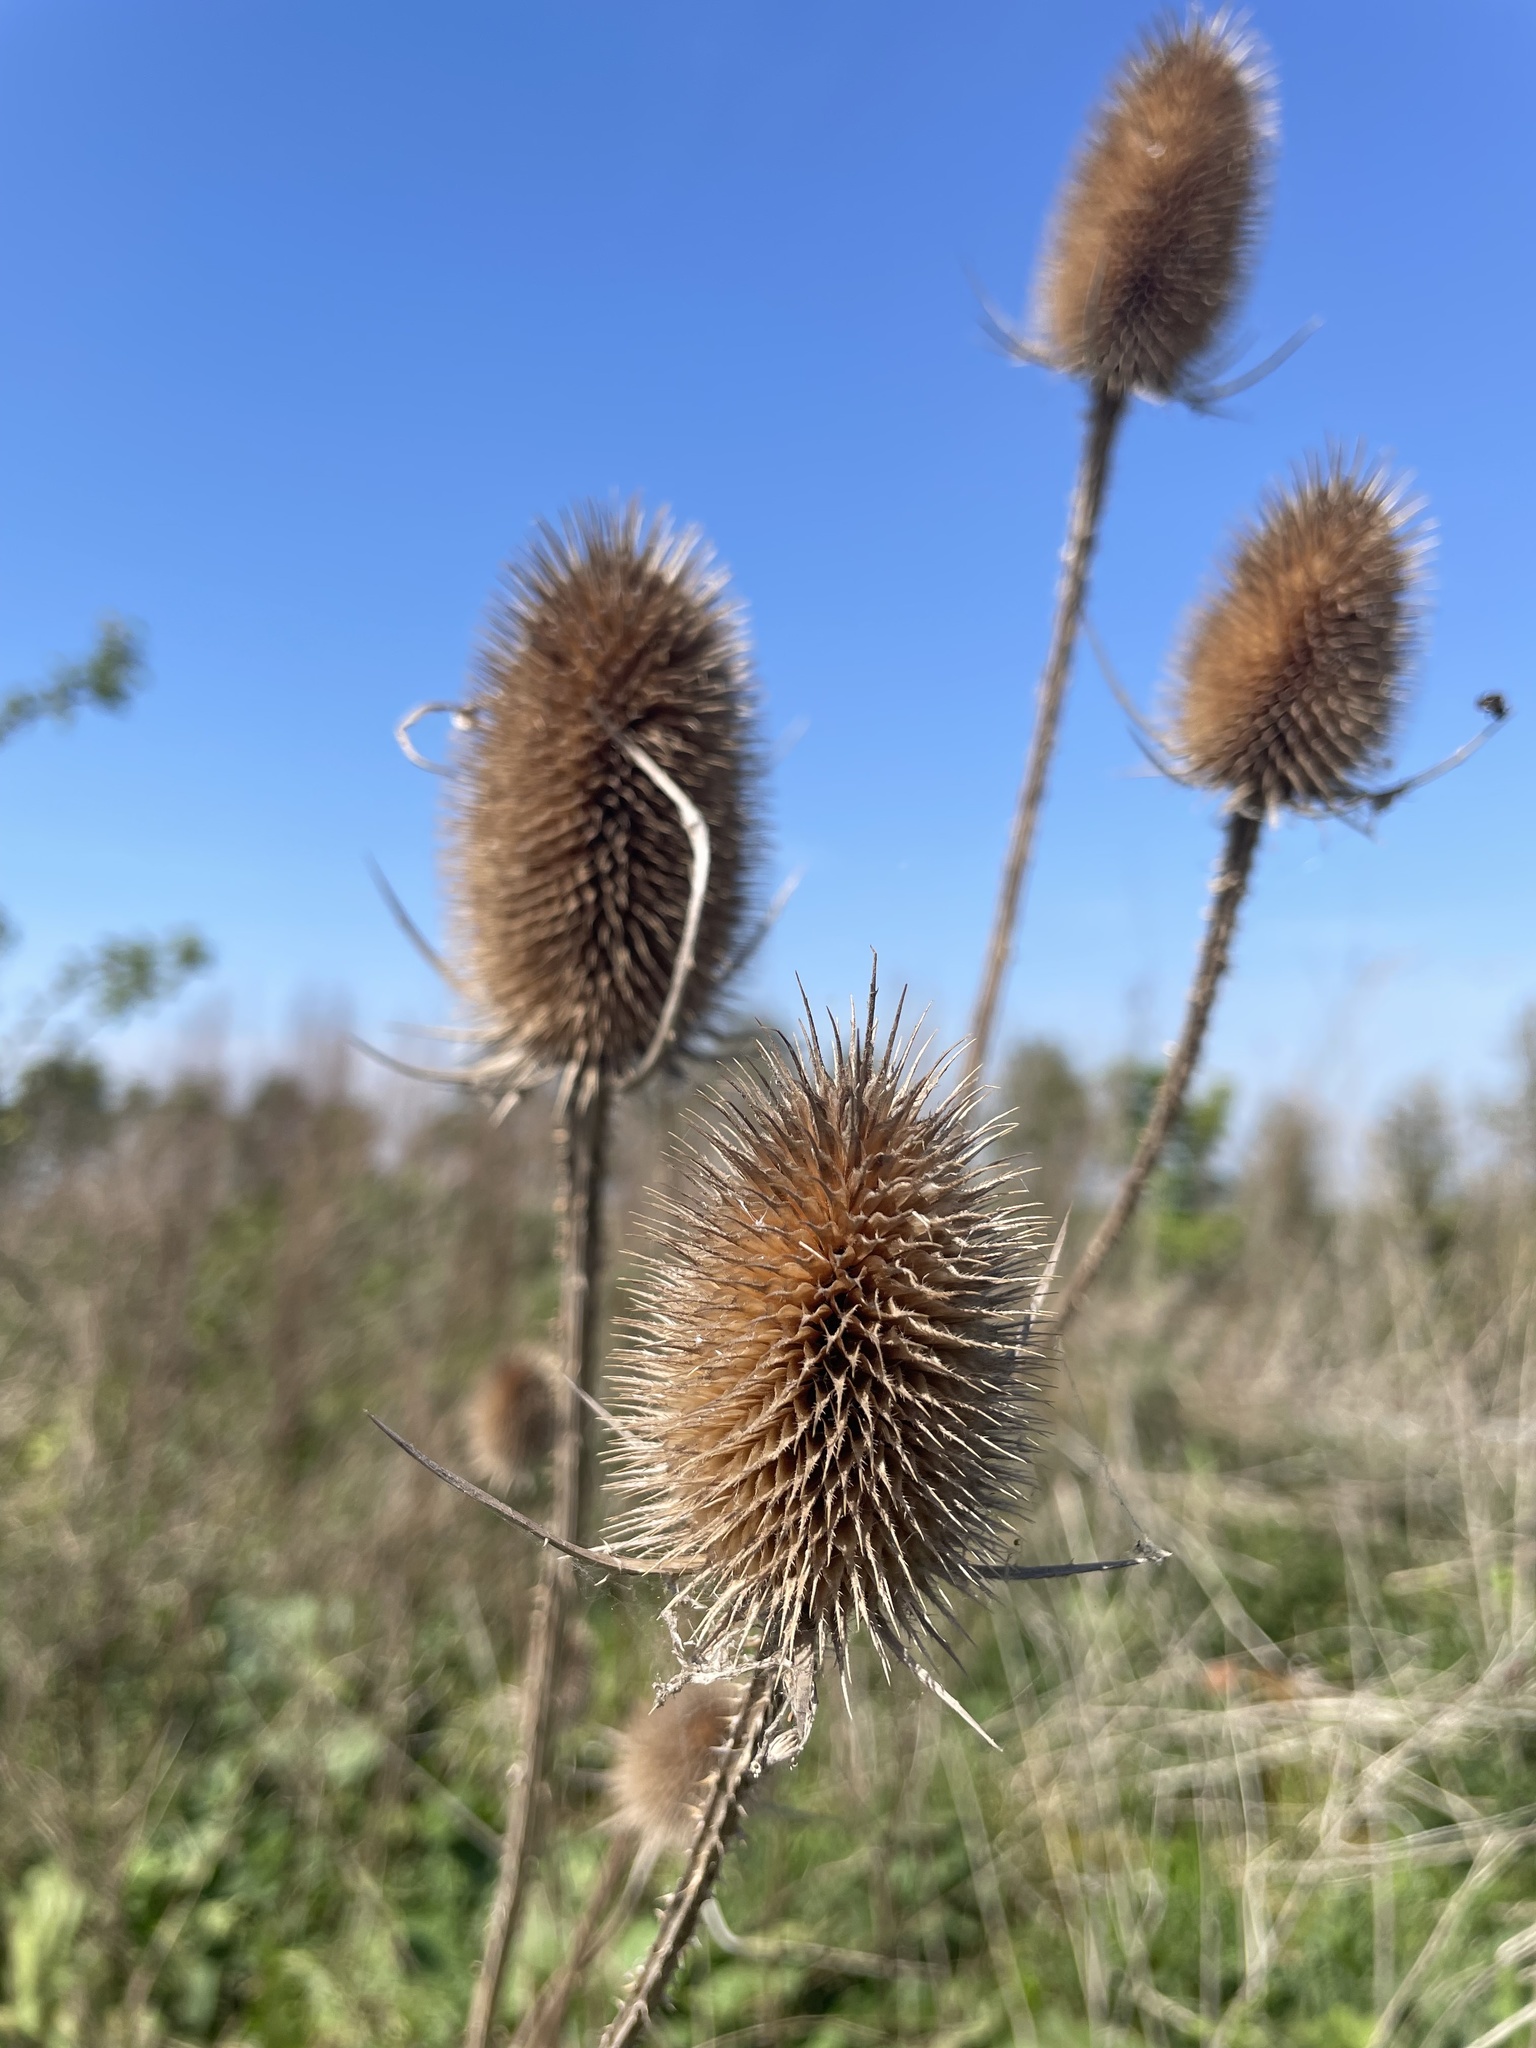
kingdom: Plantae
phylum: Tracheophyta
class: Magnoliopsida
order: Dipsacales
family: Caprifoliaceae
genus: Dipsacus
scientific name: Dipsacus fullonum
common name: Teasel
